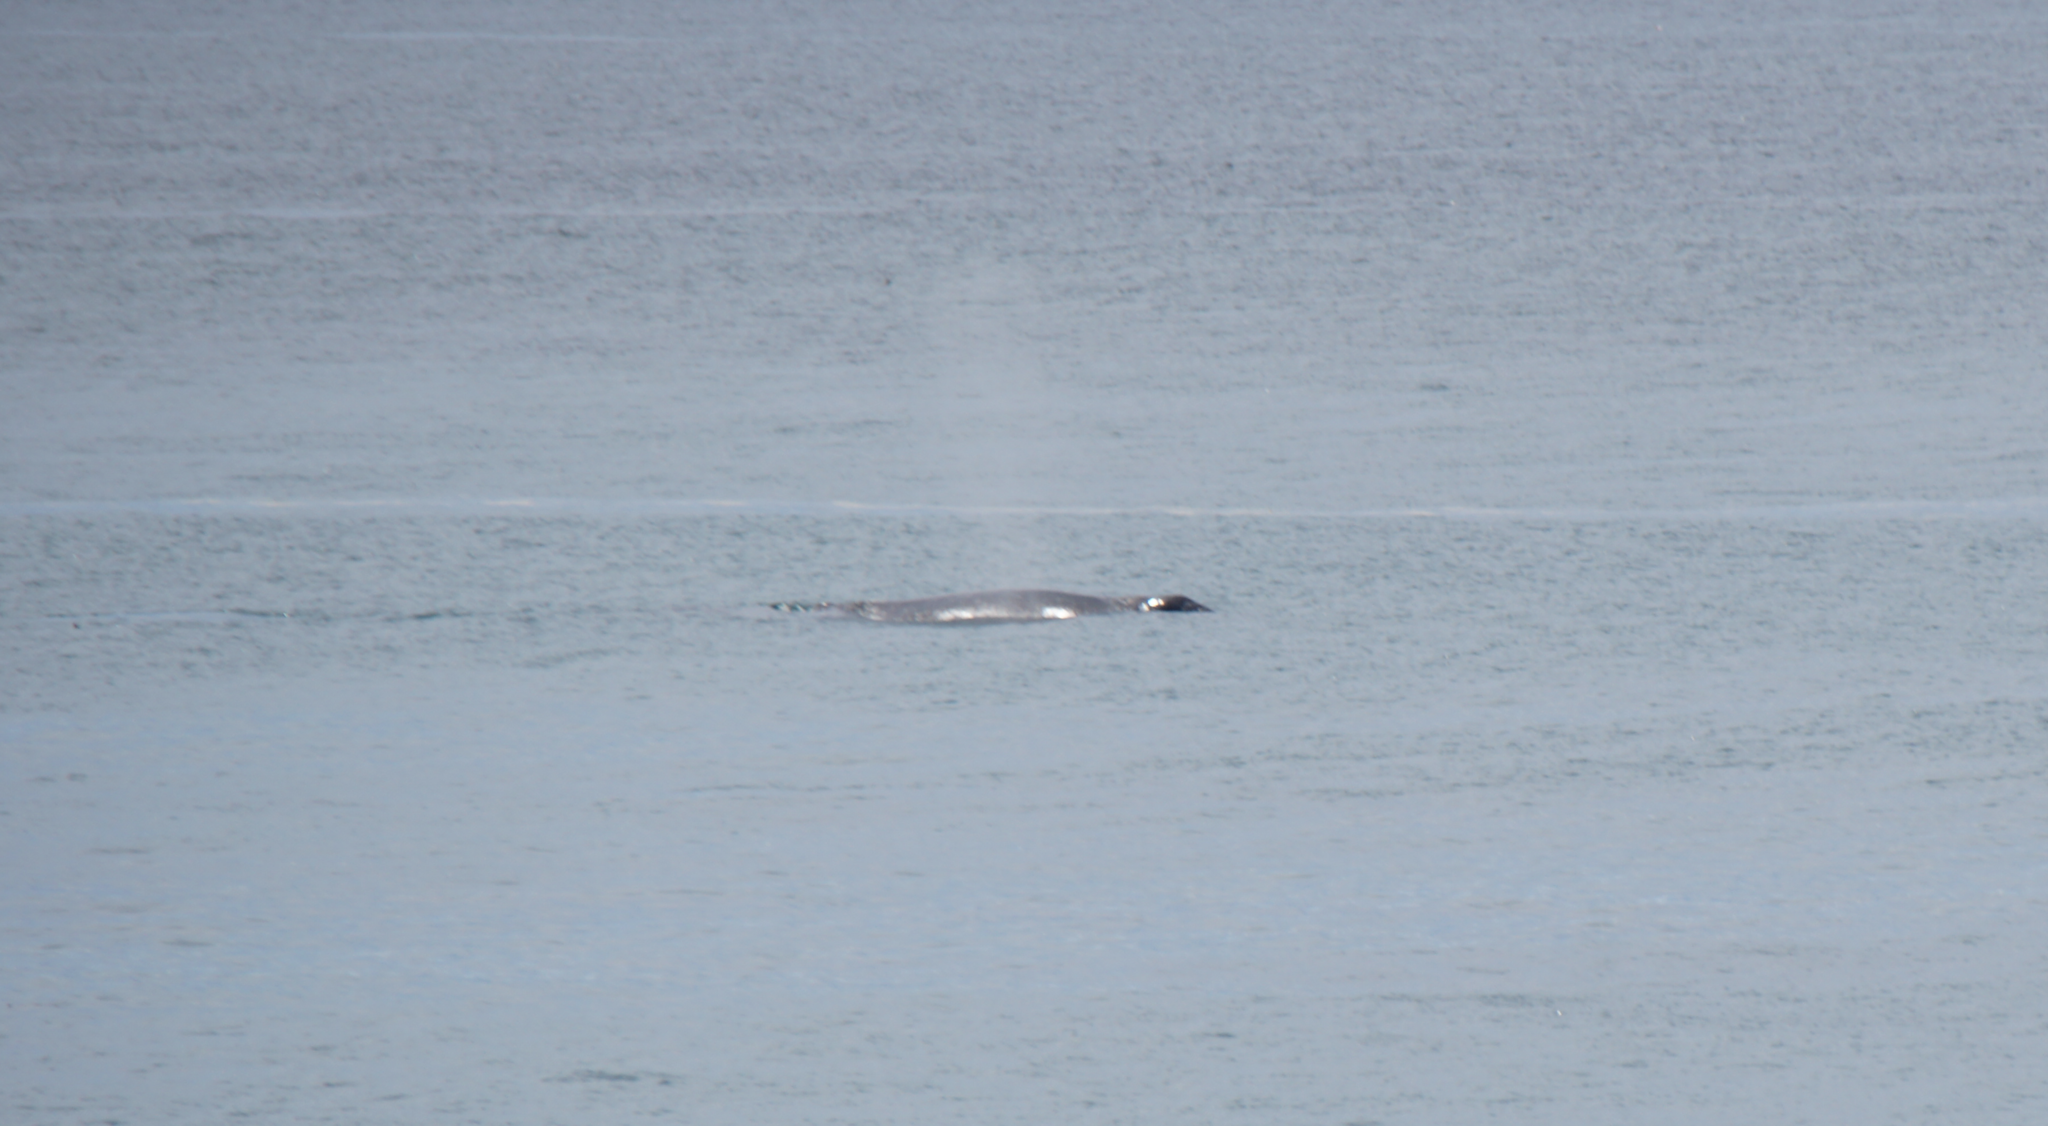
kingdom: Animalia
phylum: Chordata
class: Mammalia
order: Cetacea
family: Eschrichtiidae
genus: Eschrichtius
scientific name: Eschrichtius robustus
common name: Gray whale
